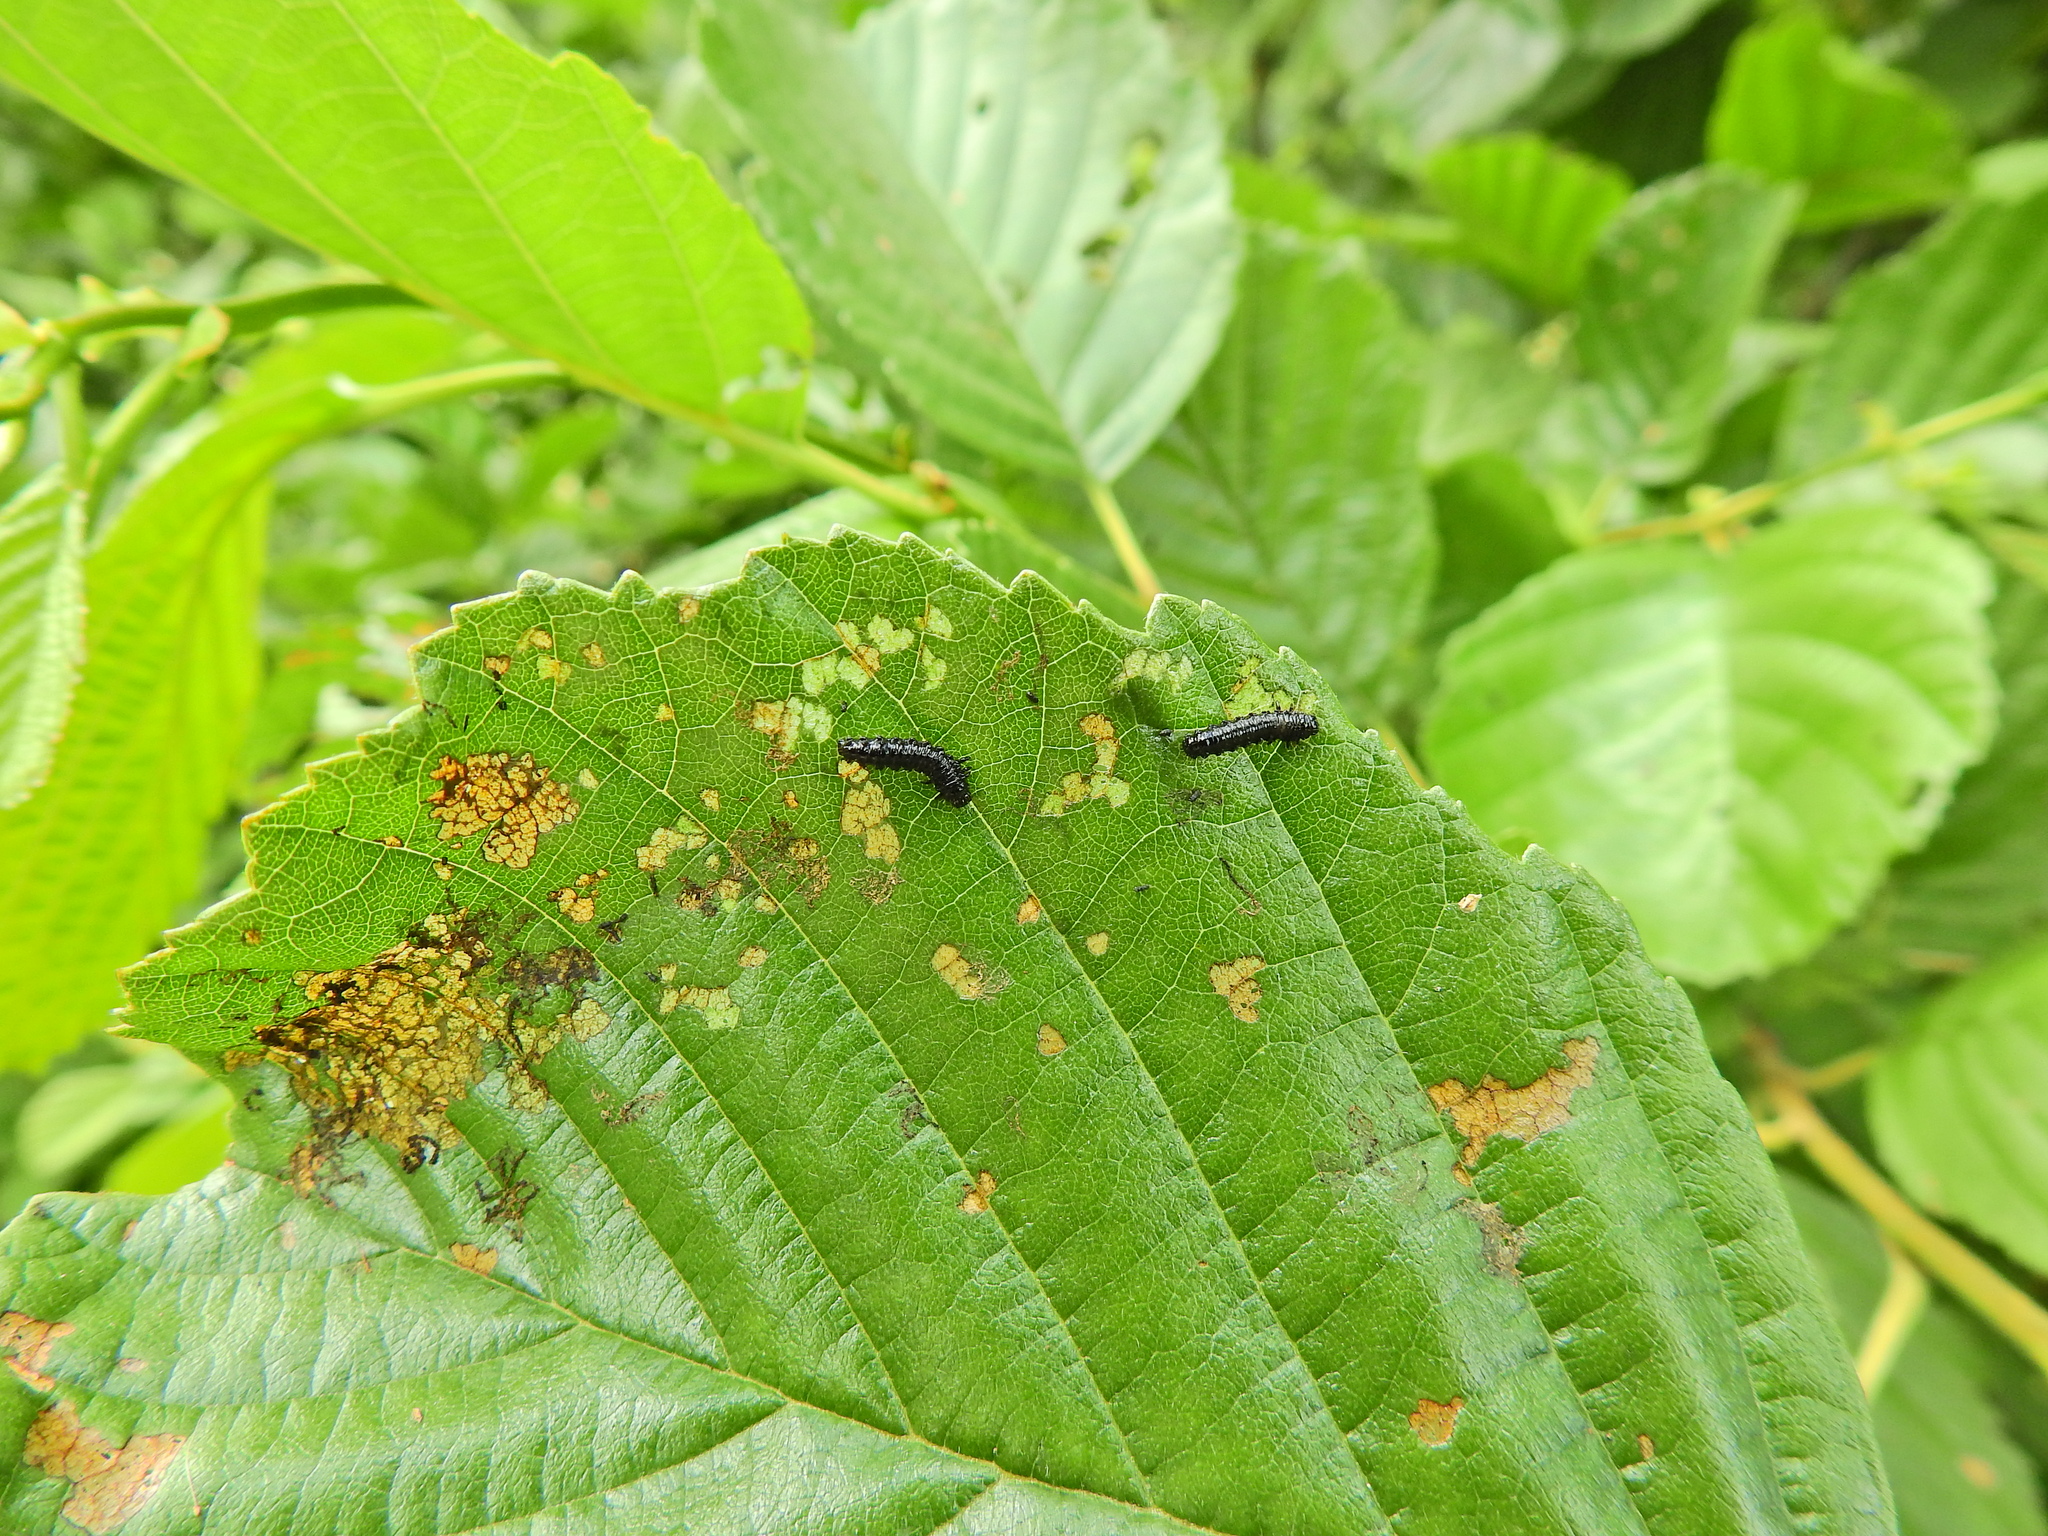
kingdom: Animalia
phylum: Arthropoda
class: Insecta
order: Coleoptera
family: Chrysomelidae
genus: Agelastica
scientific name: Agelastica alni
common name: Alder leaf beetle
